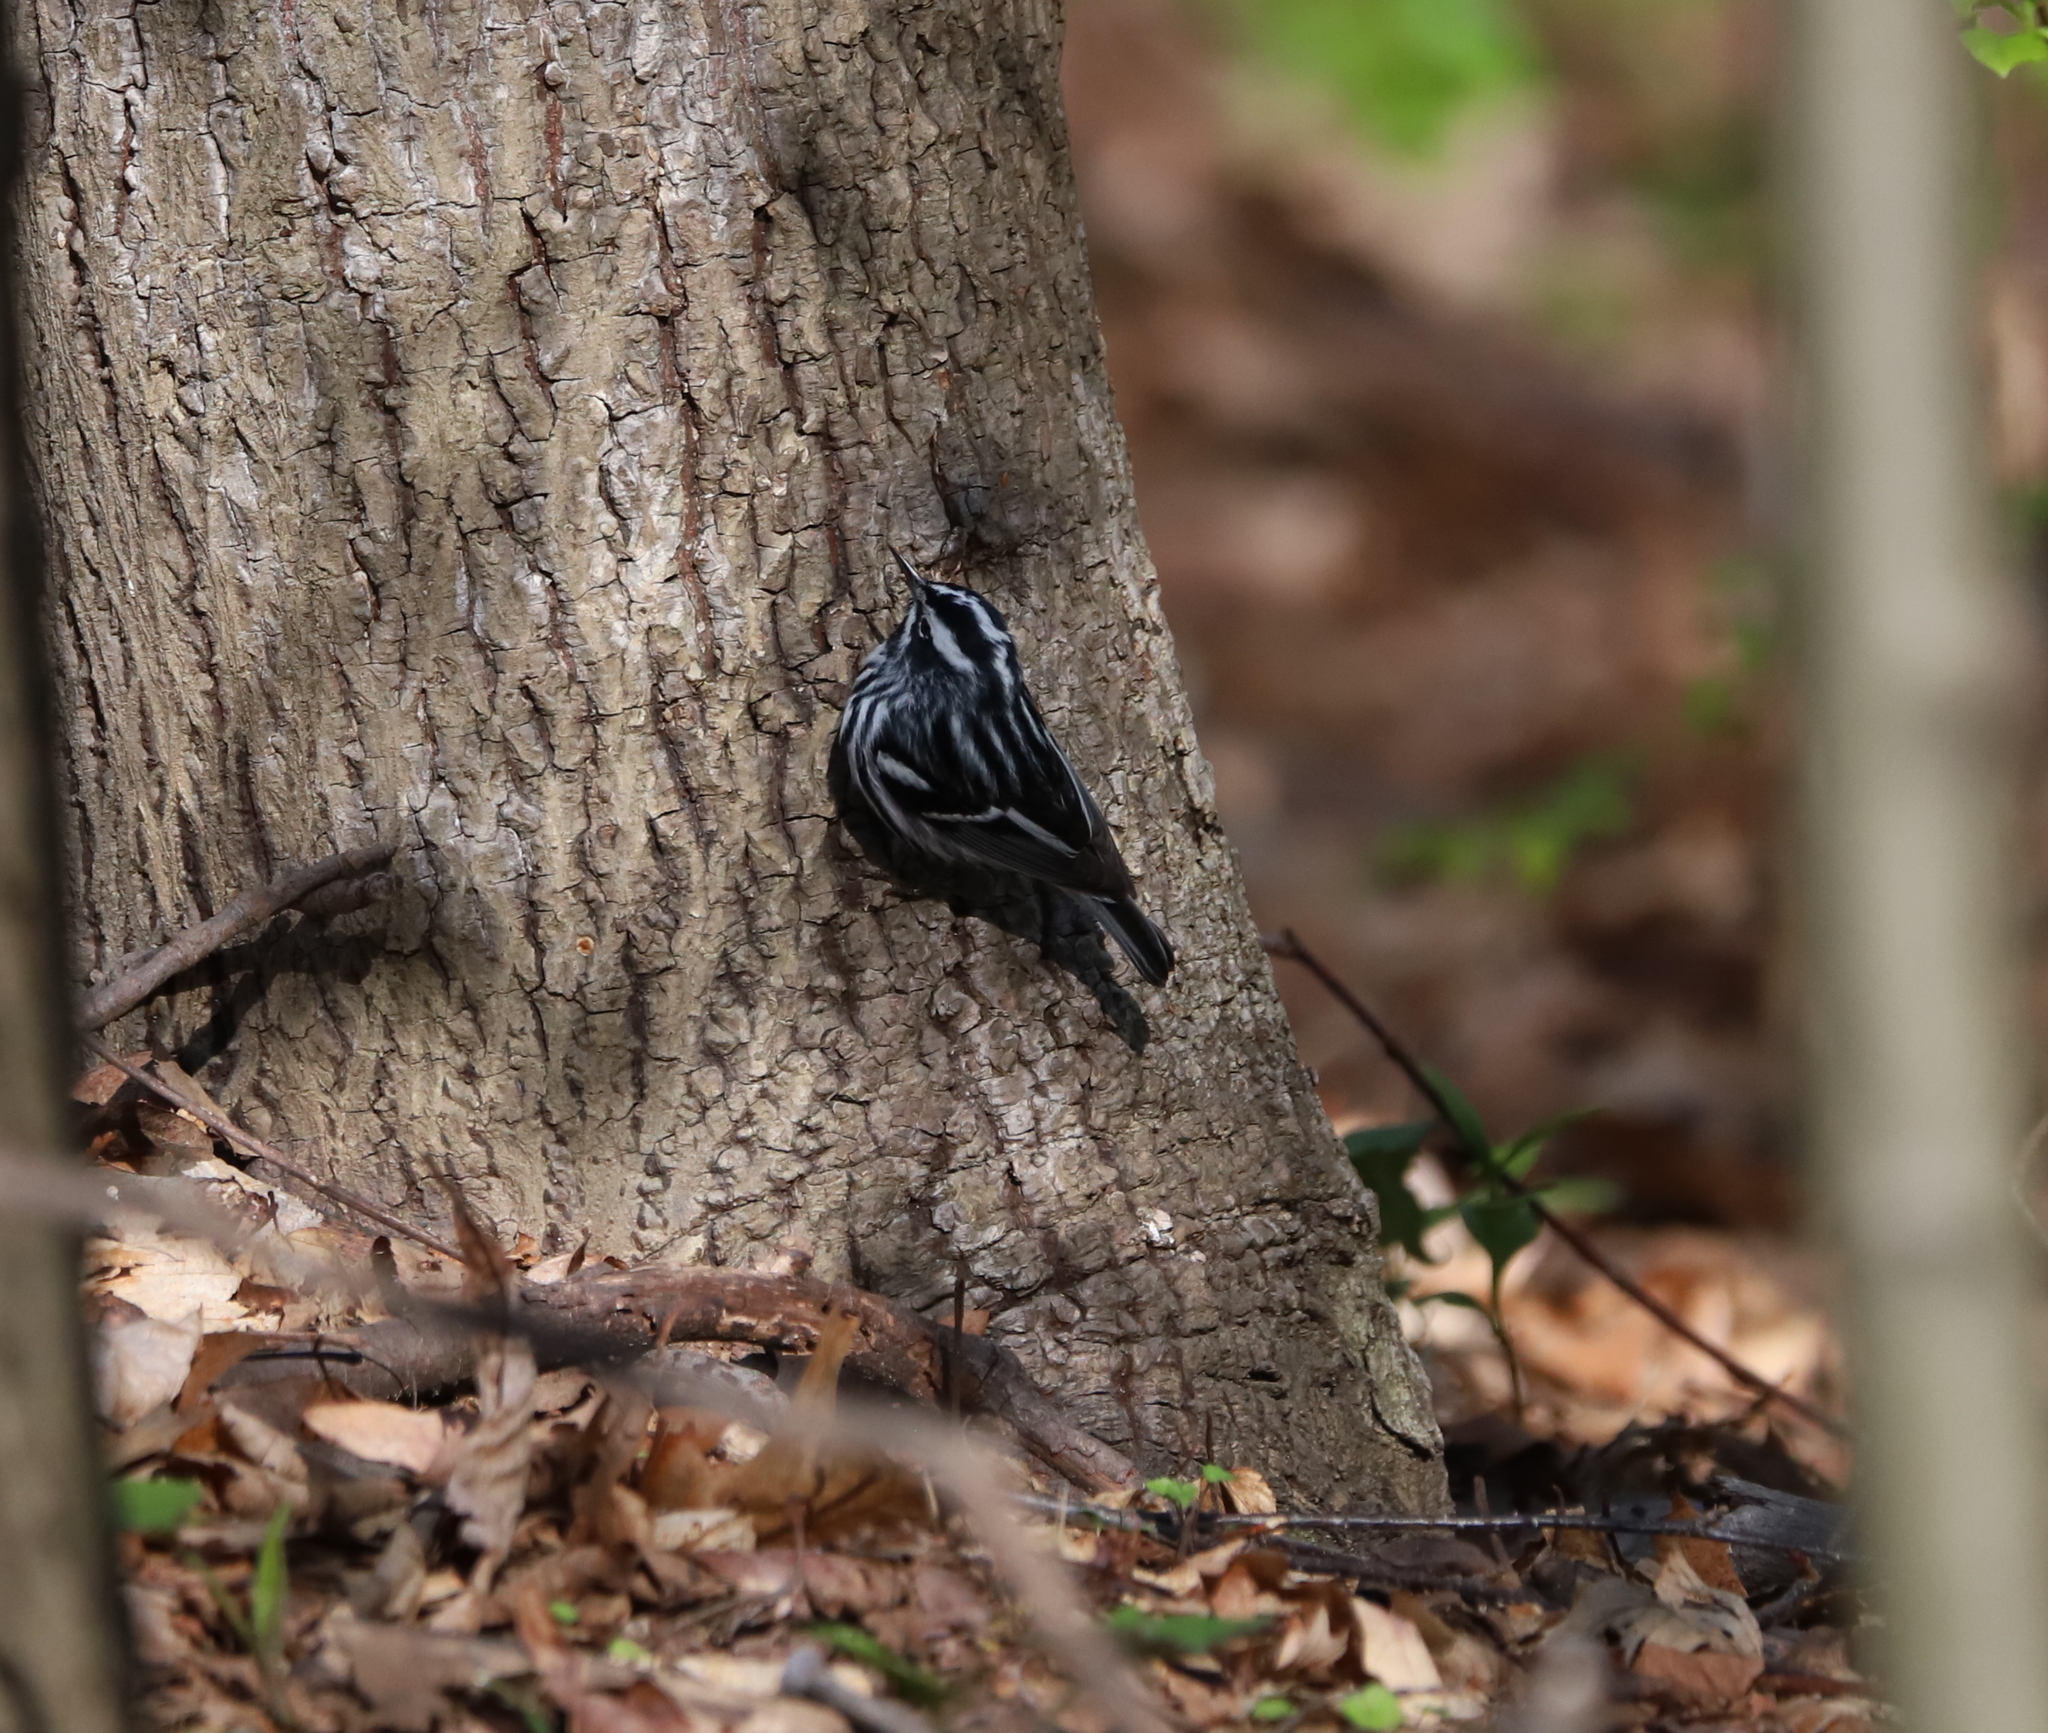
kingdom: Animalia
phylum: Chordata
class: Aves
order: Passeriformes
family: Parulidae
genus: Mniotilta
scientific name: Mniotilta varia
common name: Black-and-white warbler
